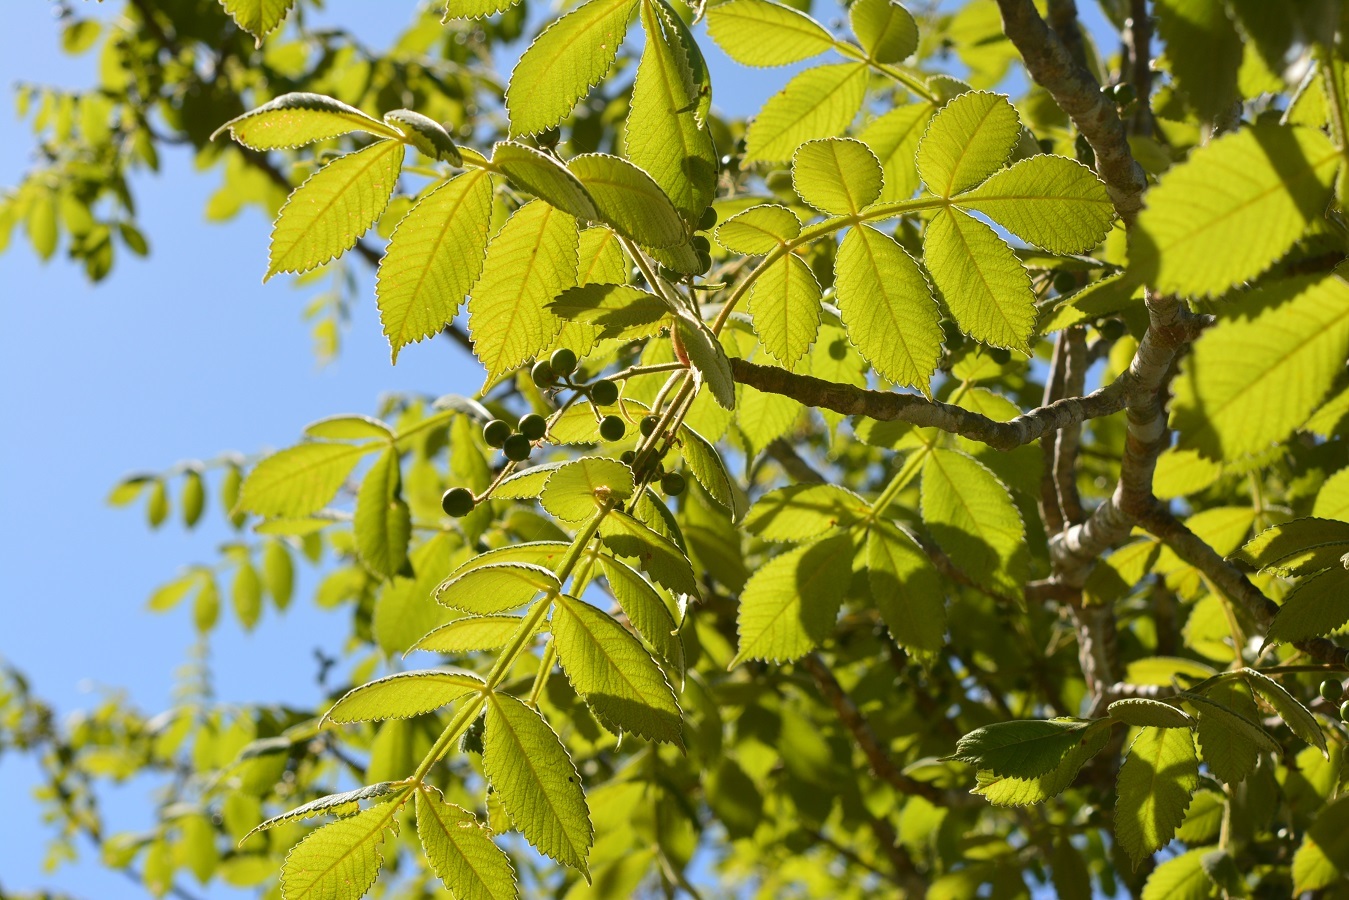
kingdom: Plantae
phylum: Tracheophyta
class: Magnoliopsida
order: Sapindales
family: Burseraceae
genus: Bursera
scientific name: Bursera excelsa
